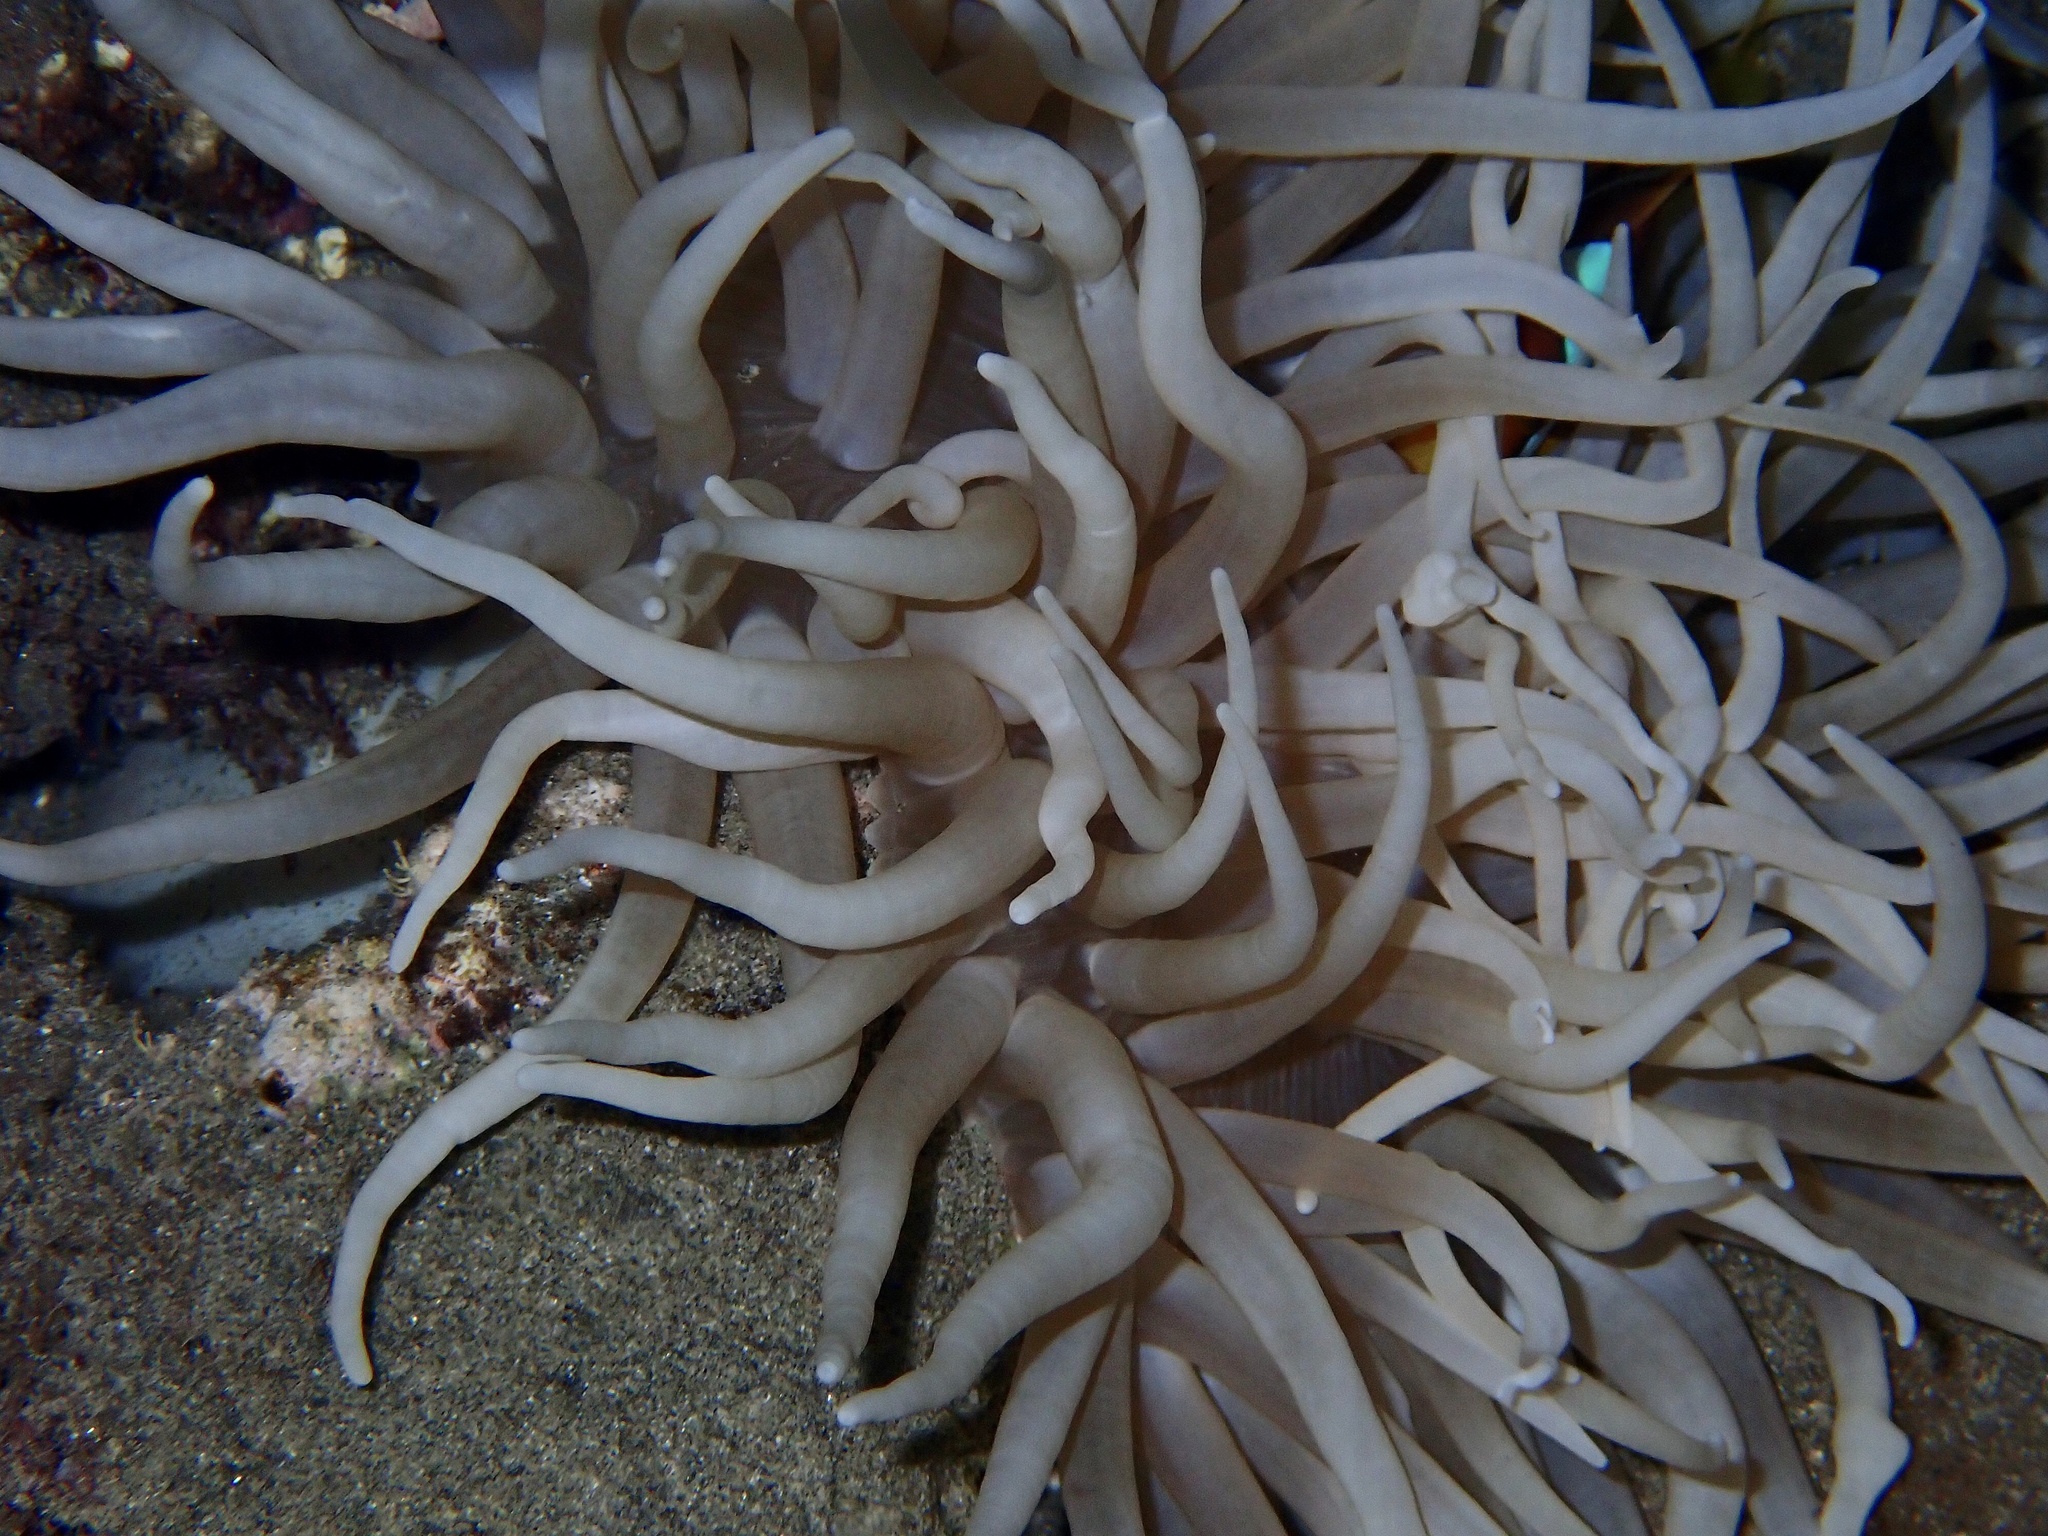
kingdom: Animalia
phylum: Cnidaria
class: Anthozoa
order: Actiniaria
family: Stichodactylidae
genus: Radianthus
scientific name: Radianthus crispa
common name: Leather anemone
